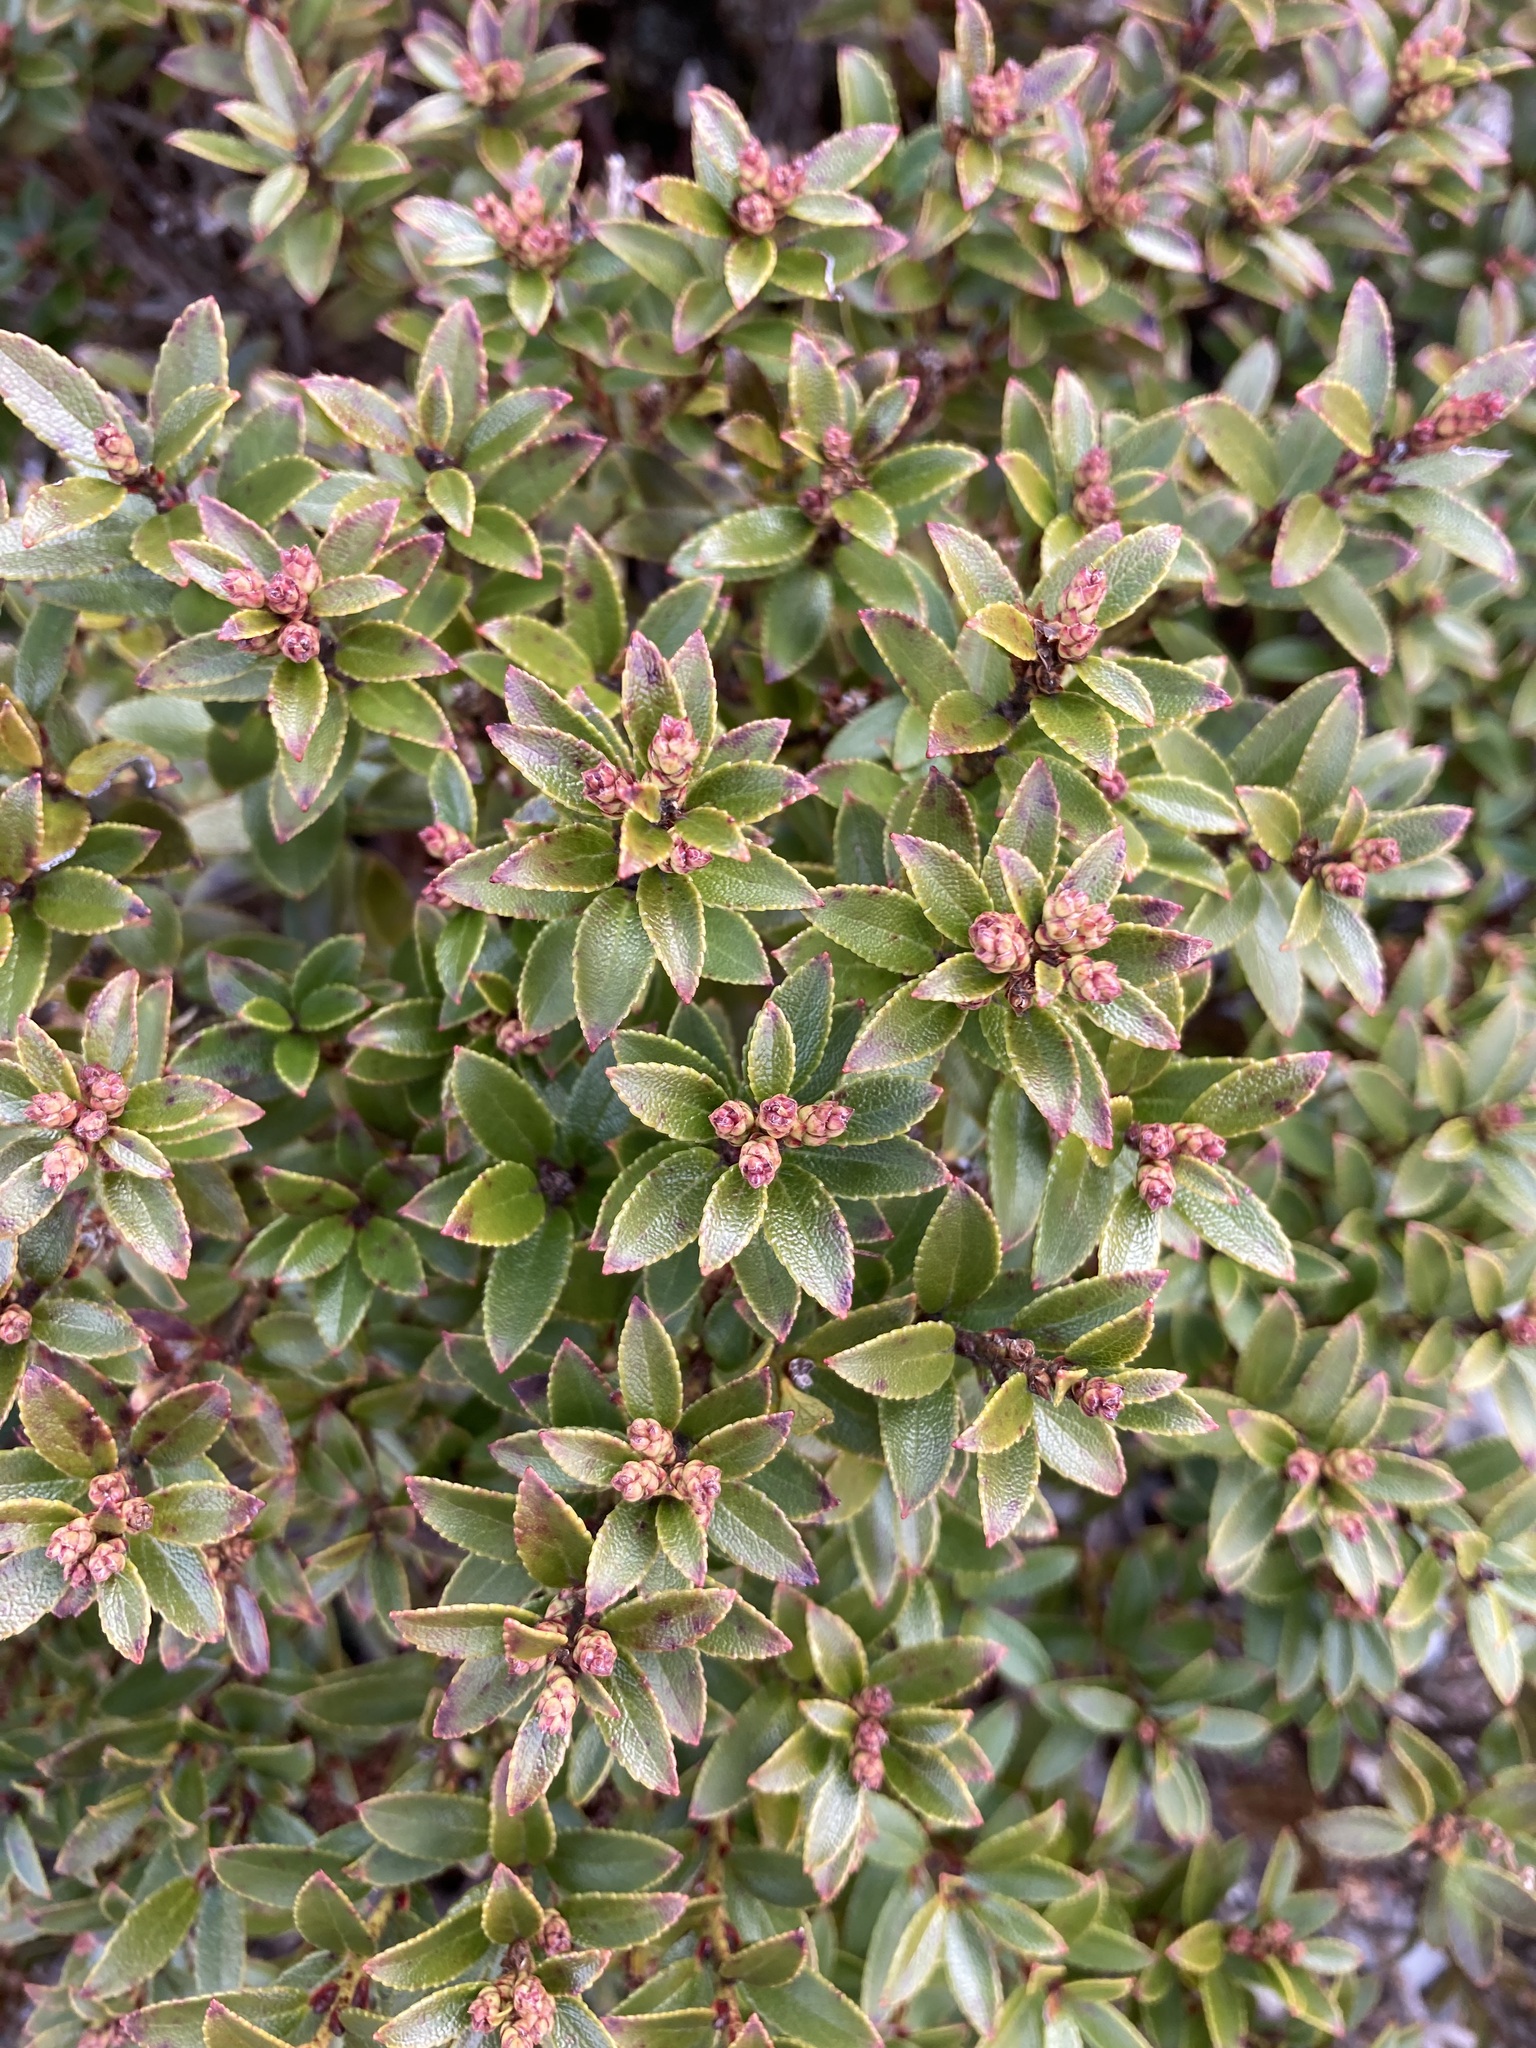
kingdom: Plantae
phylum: Tracheophyta
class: Magnoliopsida
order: Ericales
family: Ericaceae
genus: Gaultheria
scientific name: Gaultheria crassa
